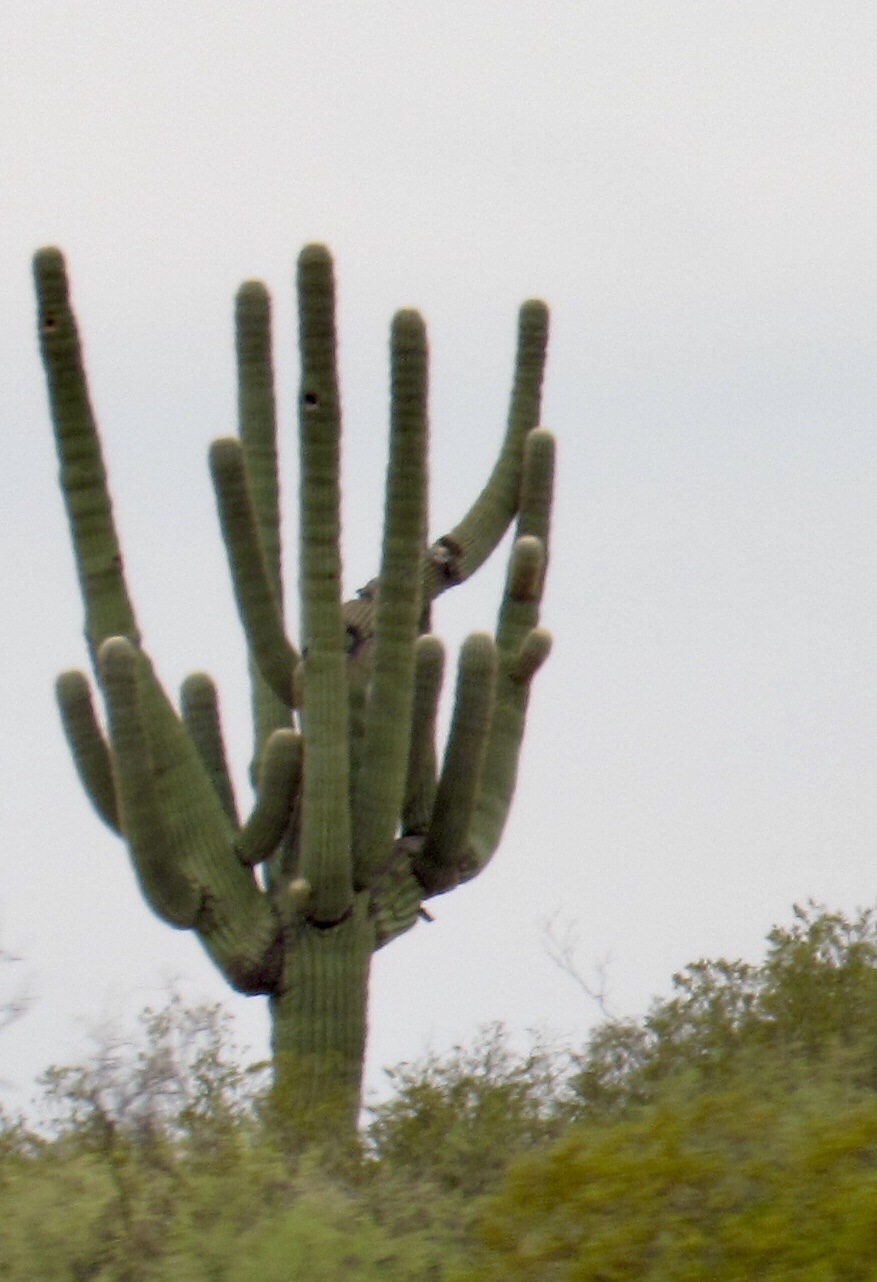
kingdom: Plantae
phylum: Tracheophyta
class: Magnoliopsida
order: Caryophyllales
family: Cactaceae
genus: Carnegiea
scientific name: Carnegiea gigantea
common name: Saguaro
